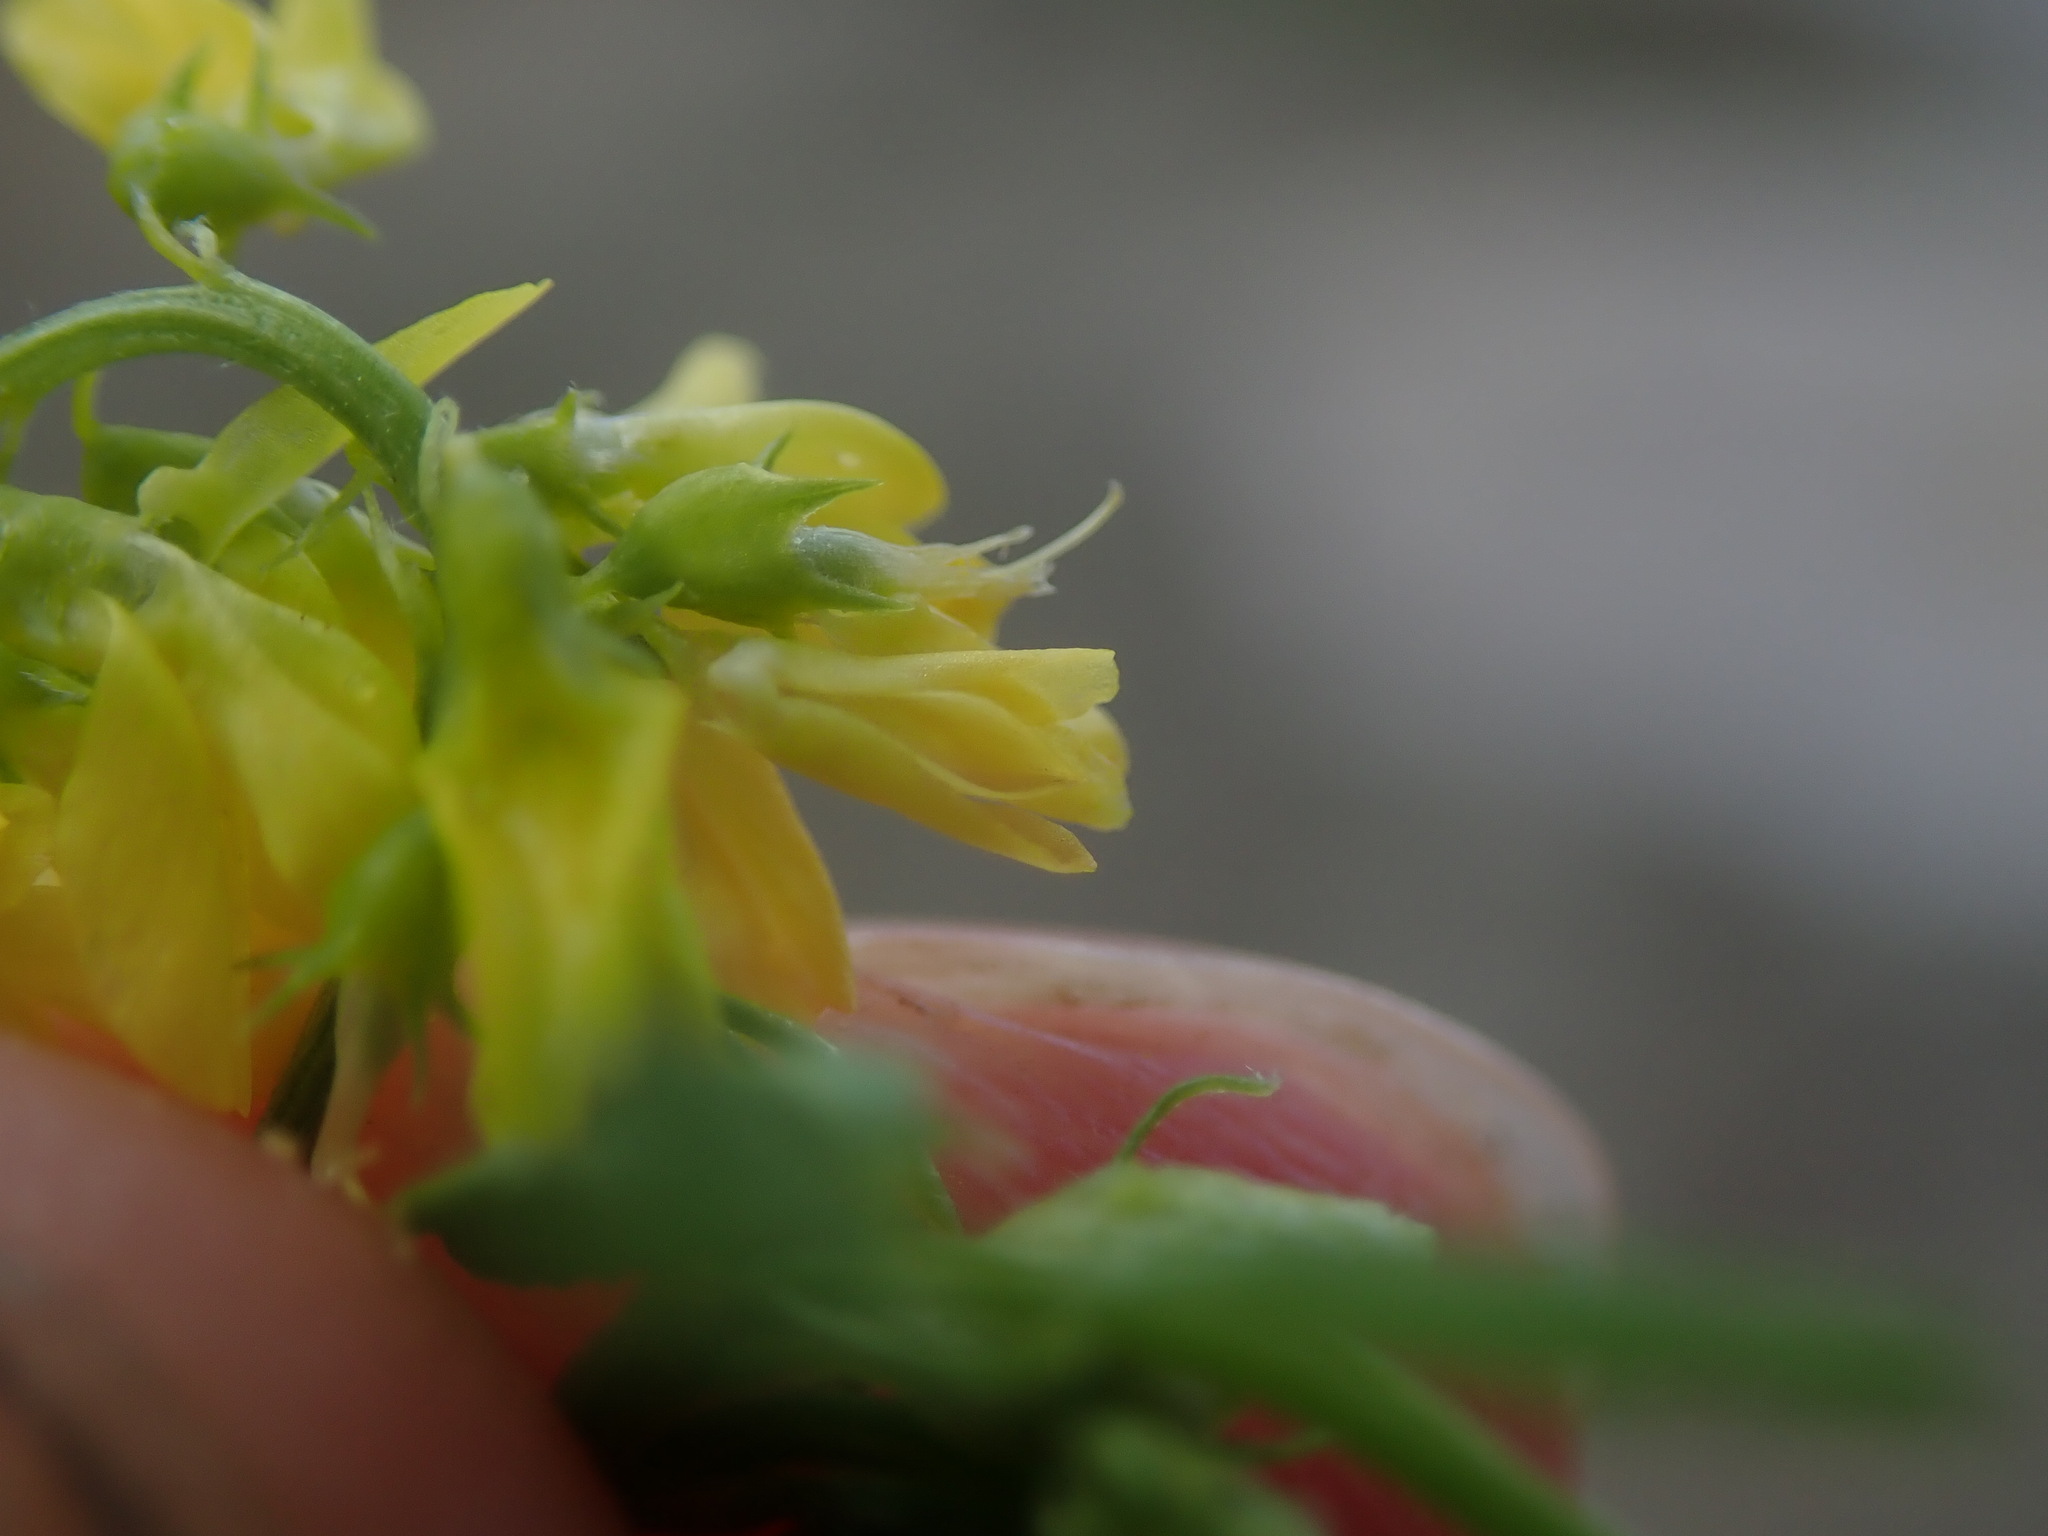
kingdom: Plantae
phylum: Tracheophyta
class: Magnoliopsida
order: Fabales
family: Fabaceae
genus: Melilotus
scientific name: Melilotus officinalis
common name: Sweetclover
